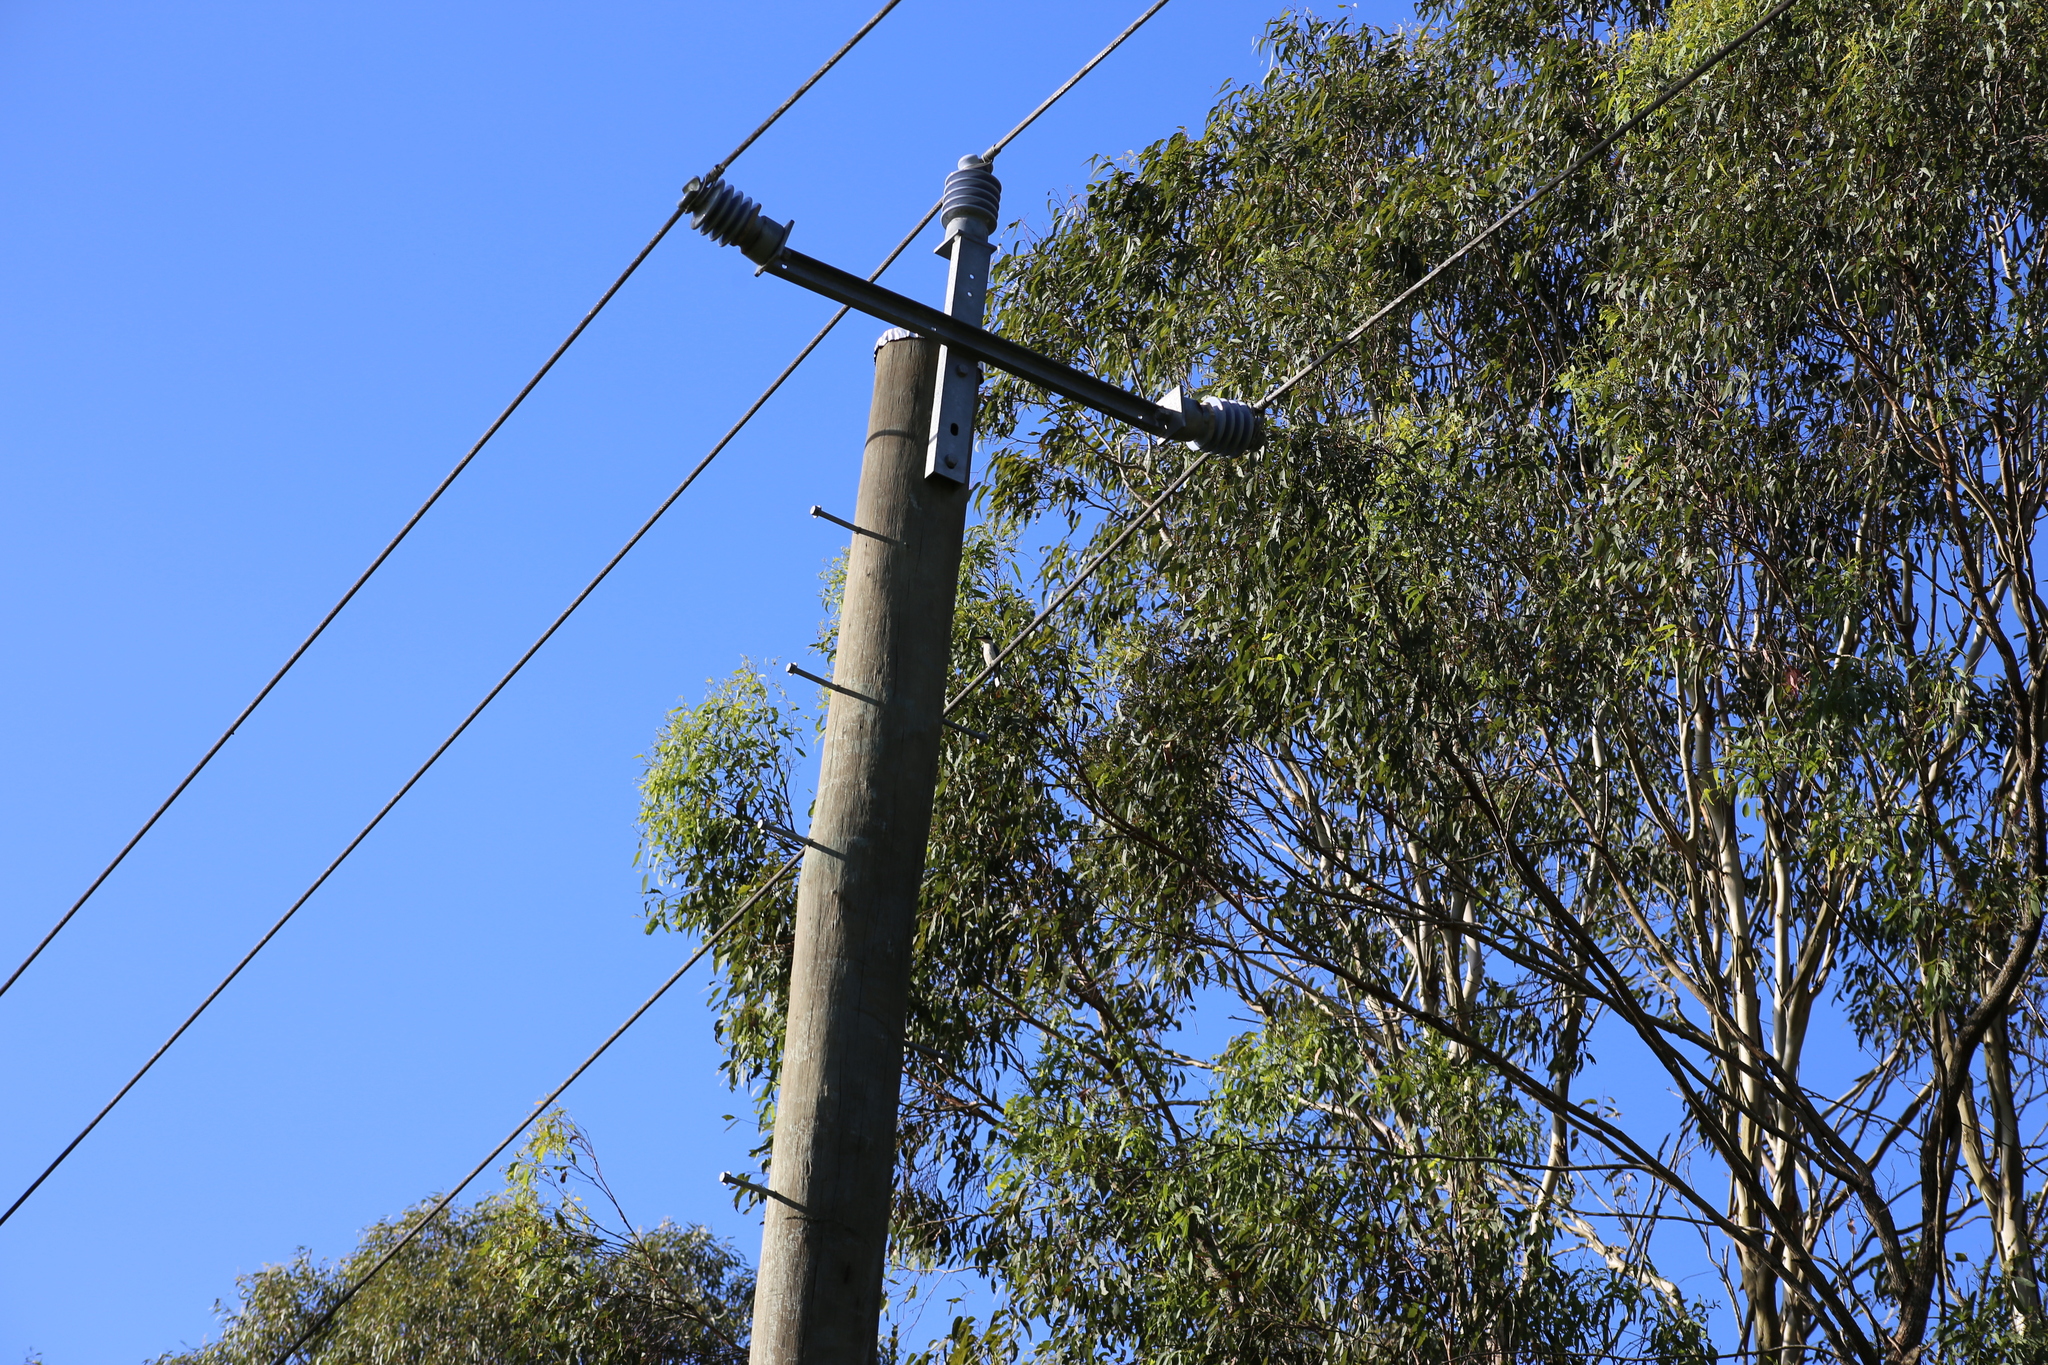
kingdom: Animalia
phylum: Chordata
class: Aves
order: Coraciiformes
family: Alcedinidae
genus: Todiramphus
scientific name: Todiramphus sanctus
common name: Sacred kingfisher
